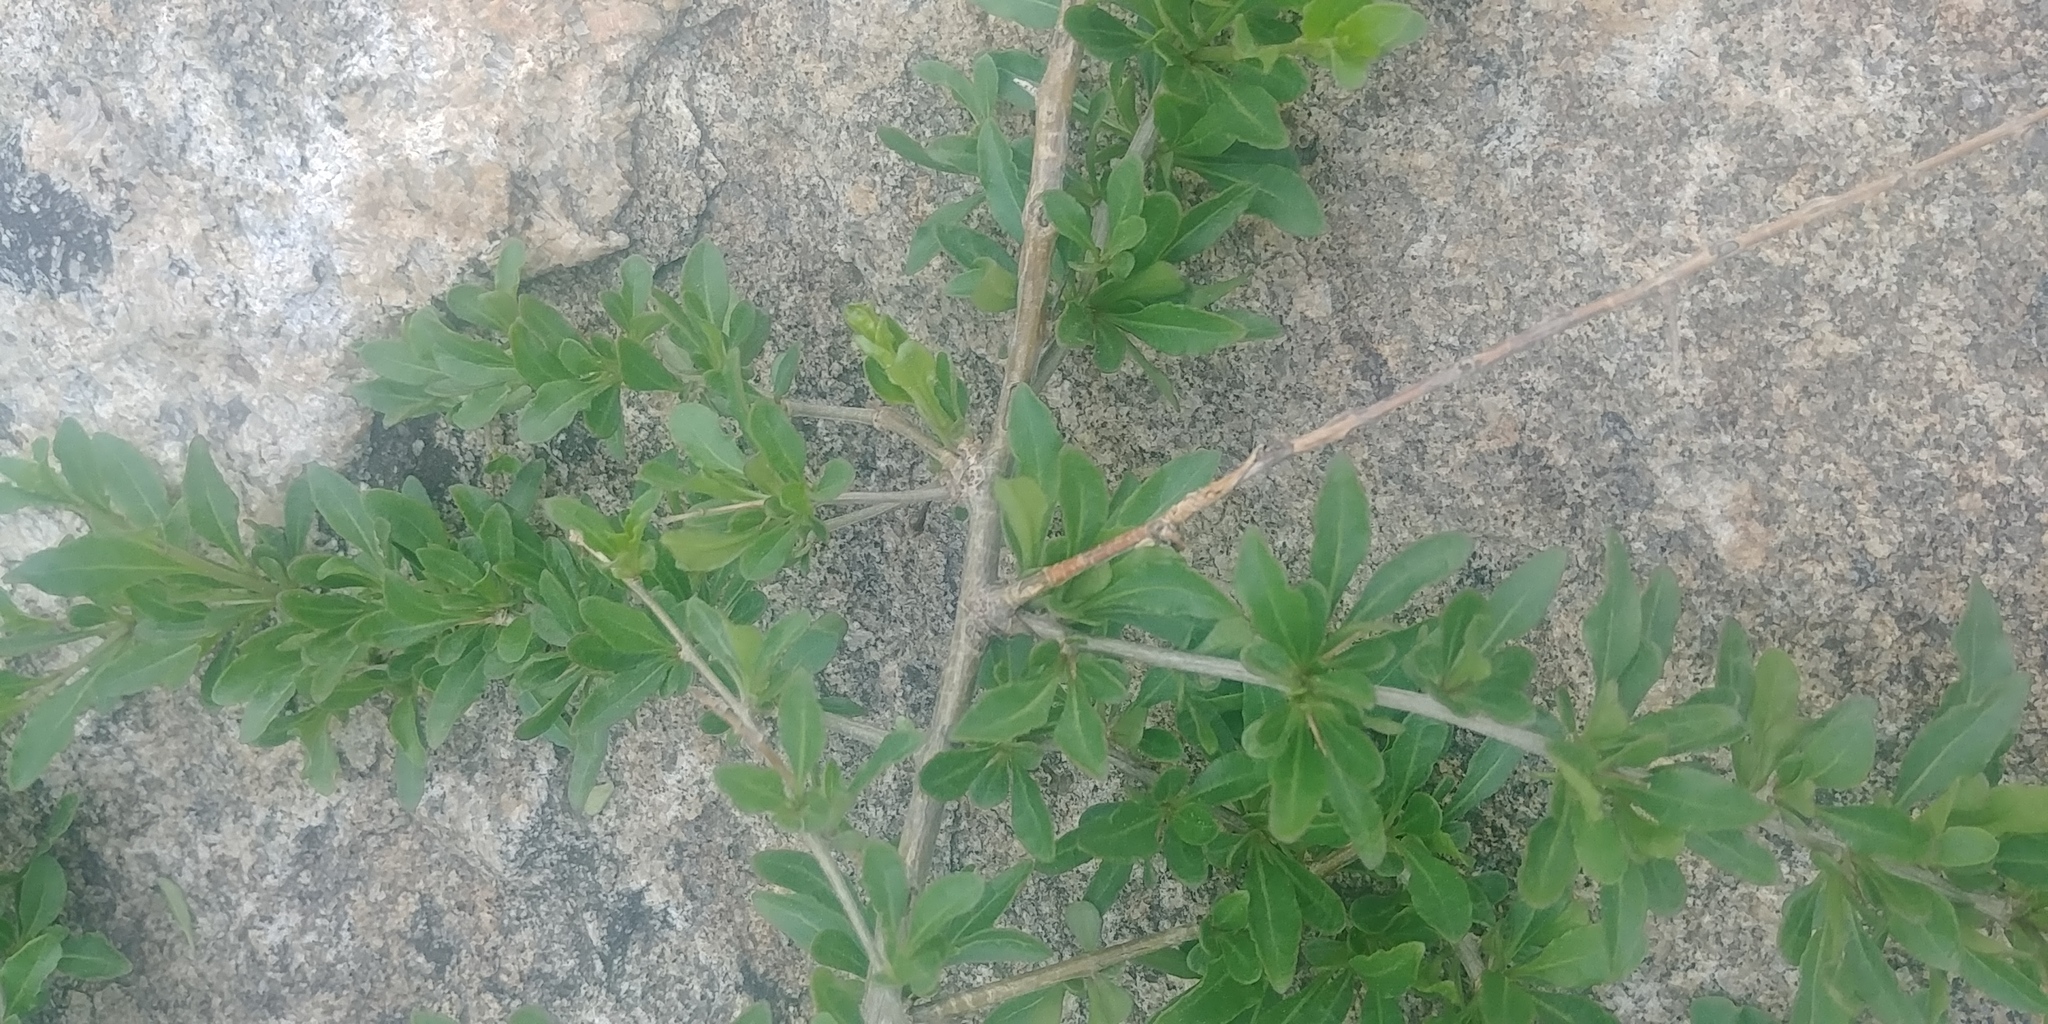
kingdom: Plantae
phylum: Tracheophyta
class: Magnoliopsida
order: Solanales
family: Solanaceae
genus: Lycium
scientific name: Lycium barbarum
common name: Duke of argyll's teaplant
